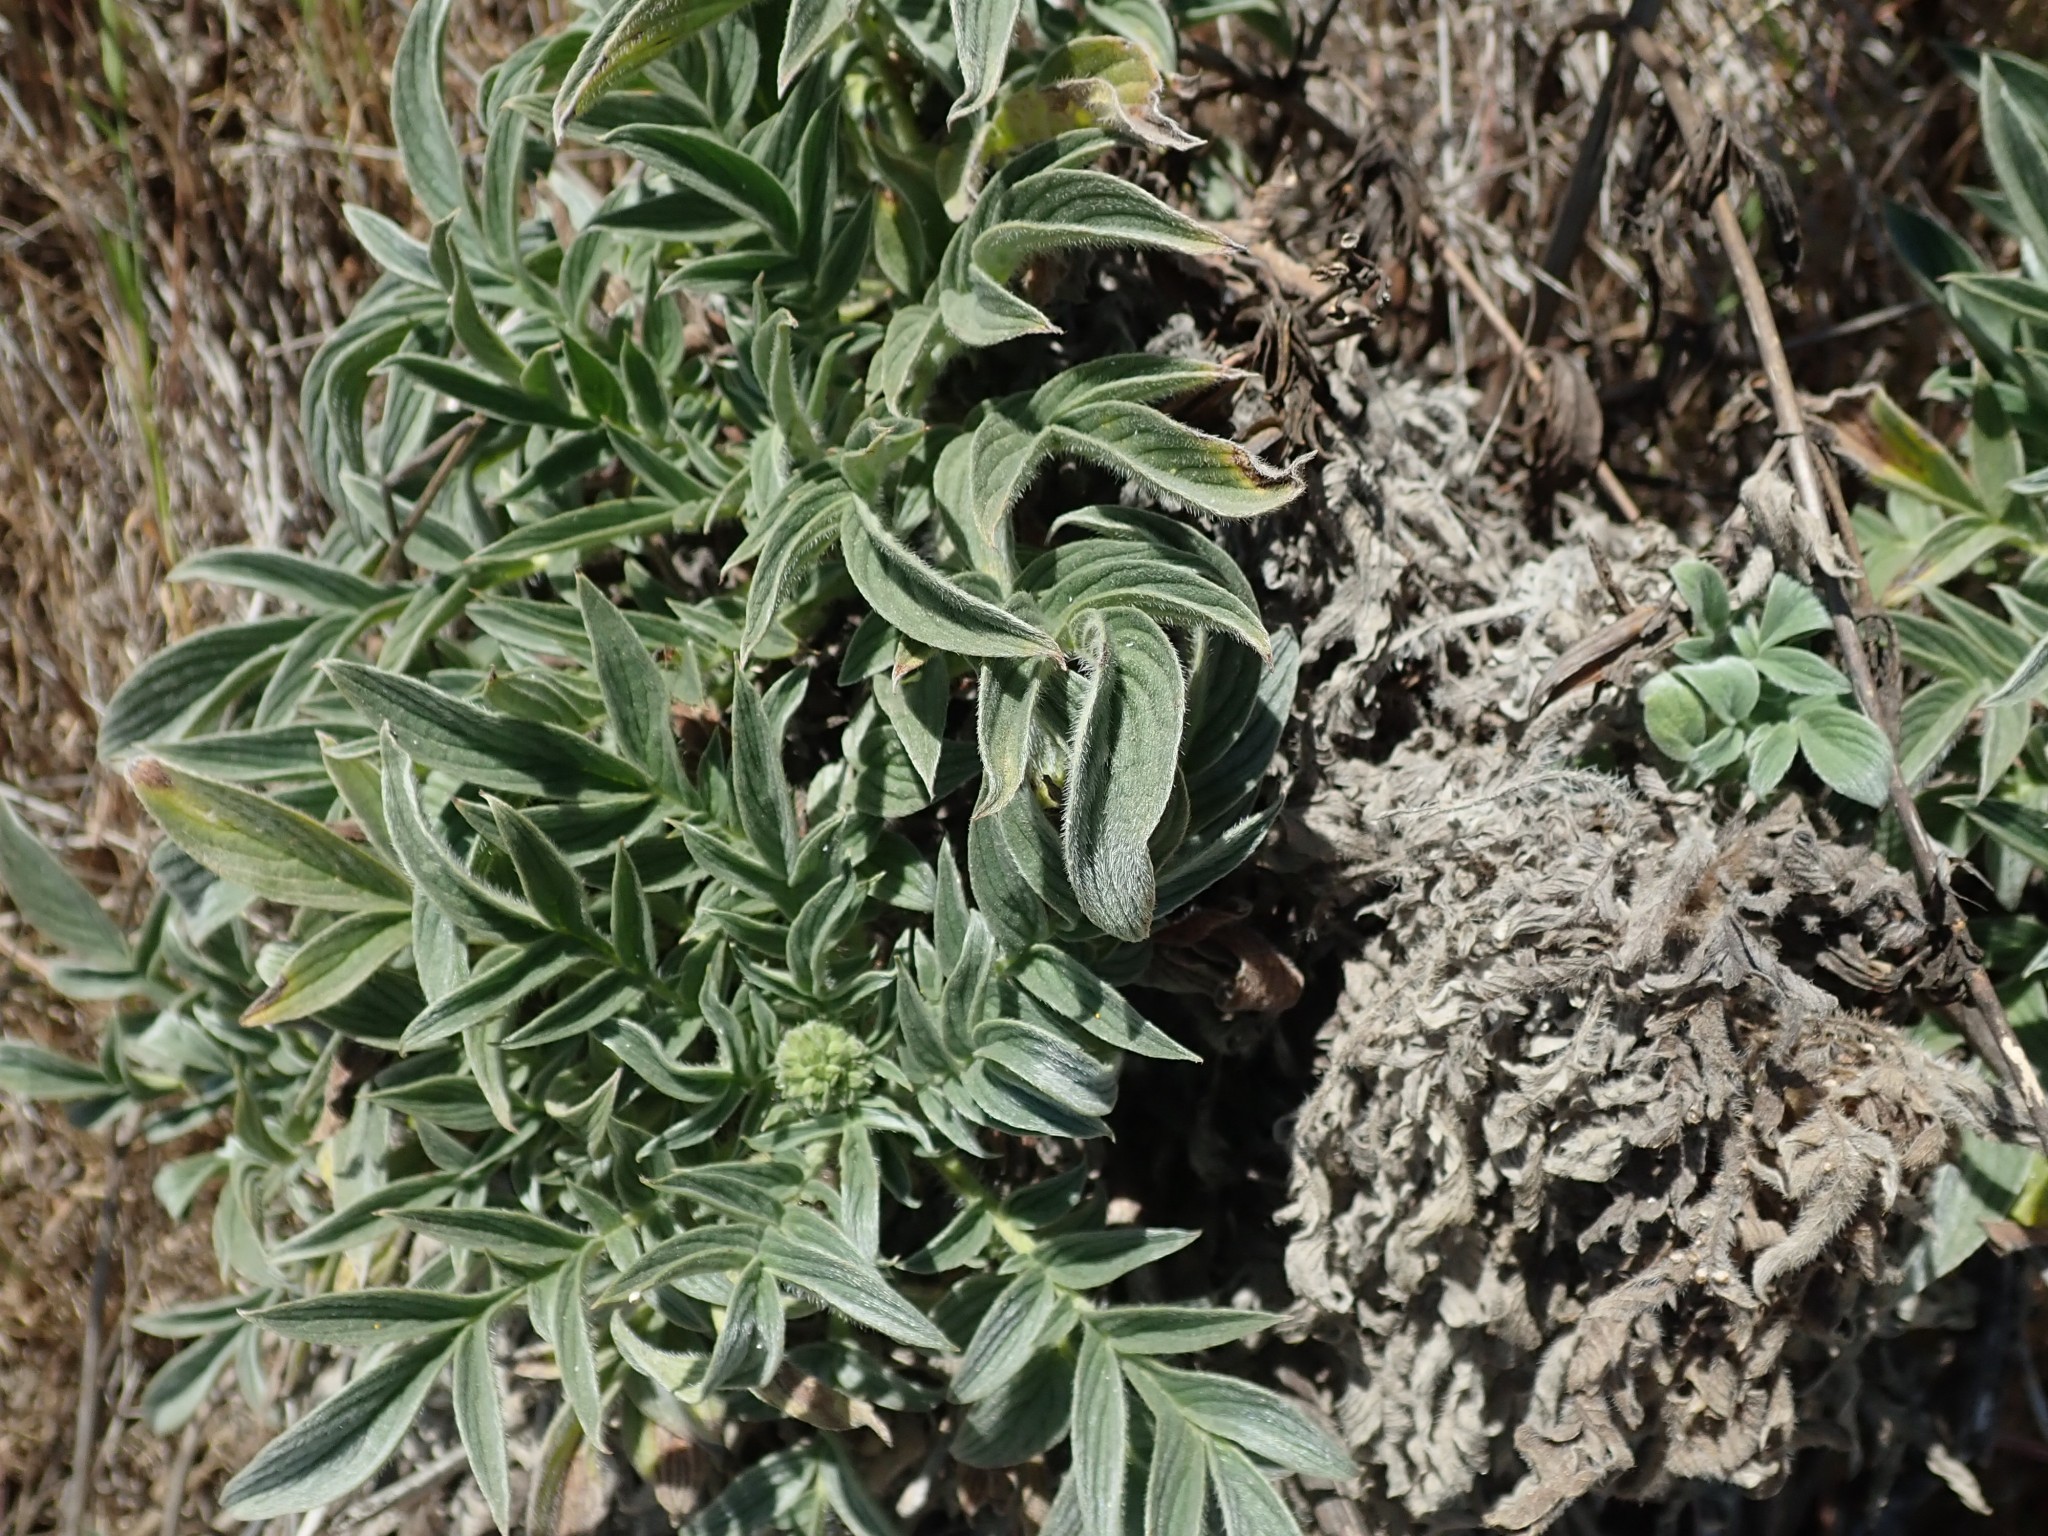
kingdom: Plantae
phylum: Tracheophyta
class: Magnoliopsida
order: Boraginales
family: Hydrophyllaceae
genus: Phacelia
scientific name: Phacelia imbricata
